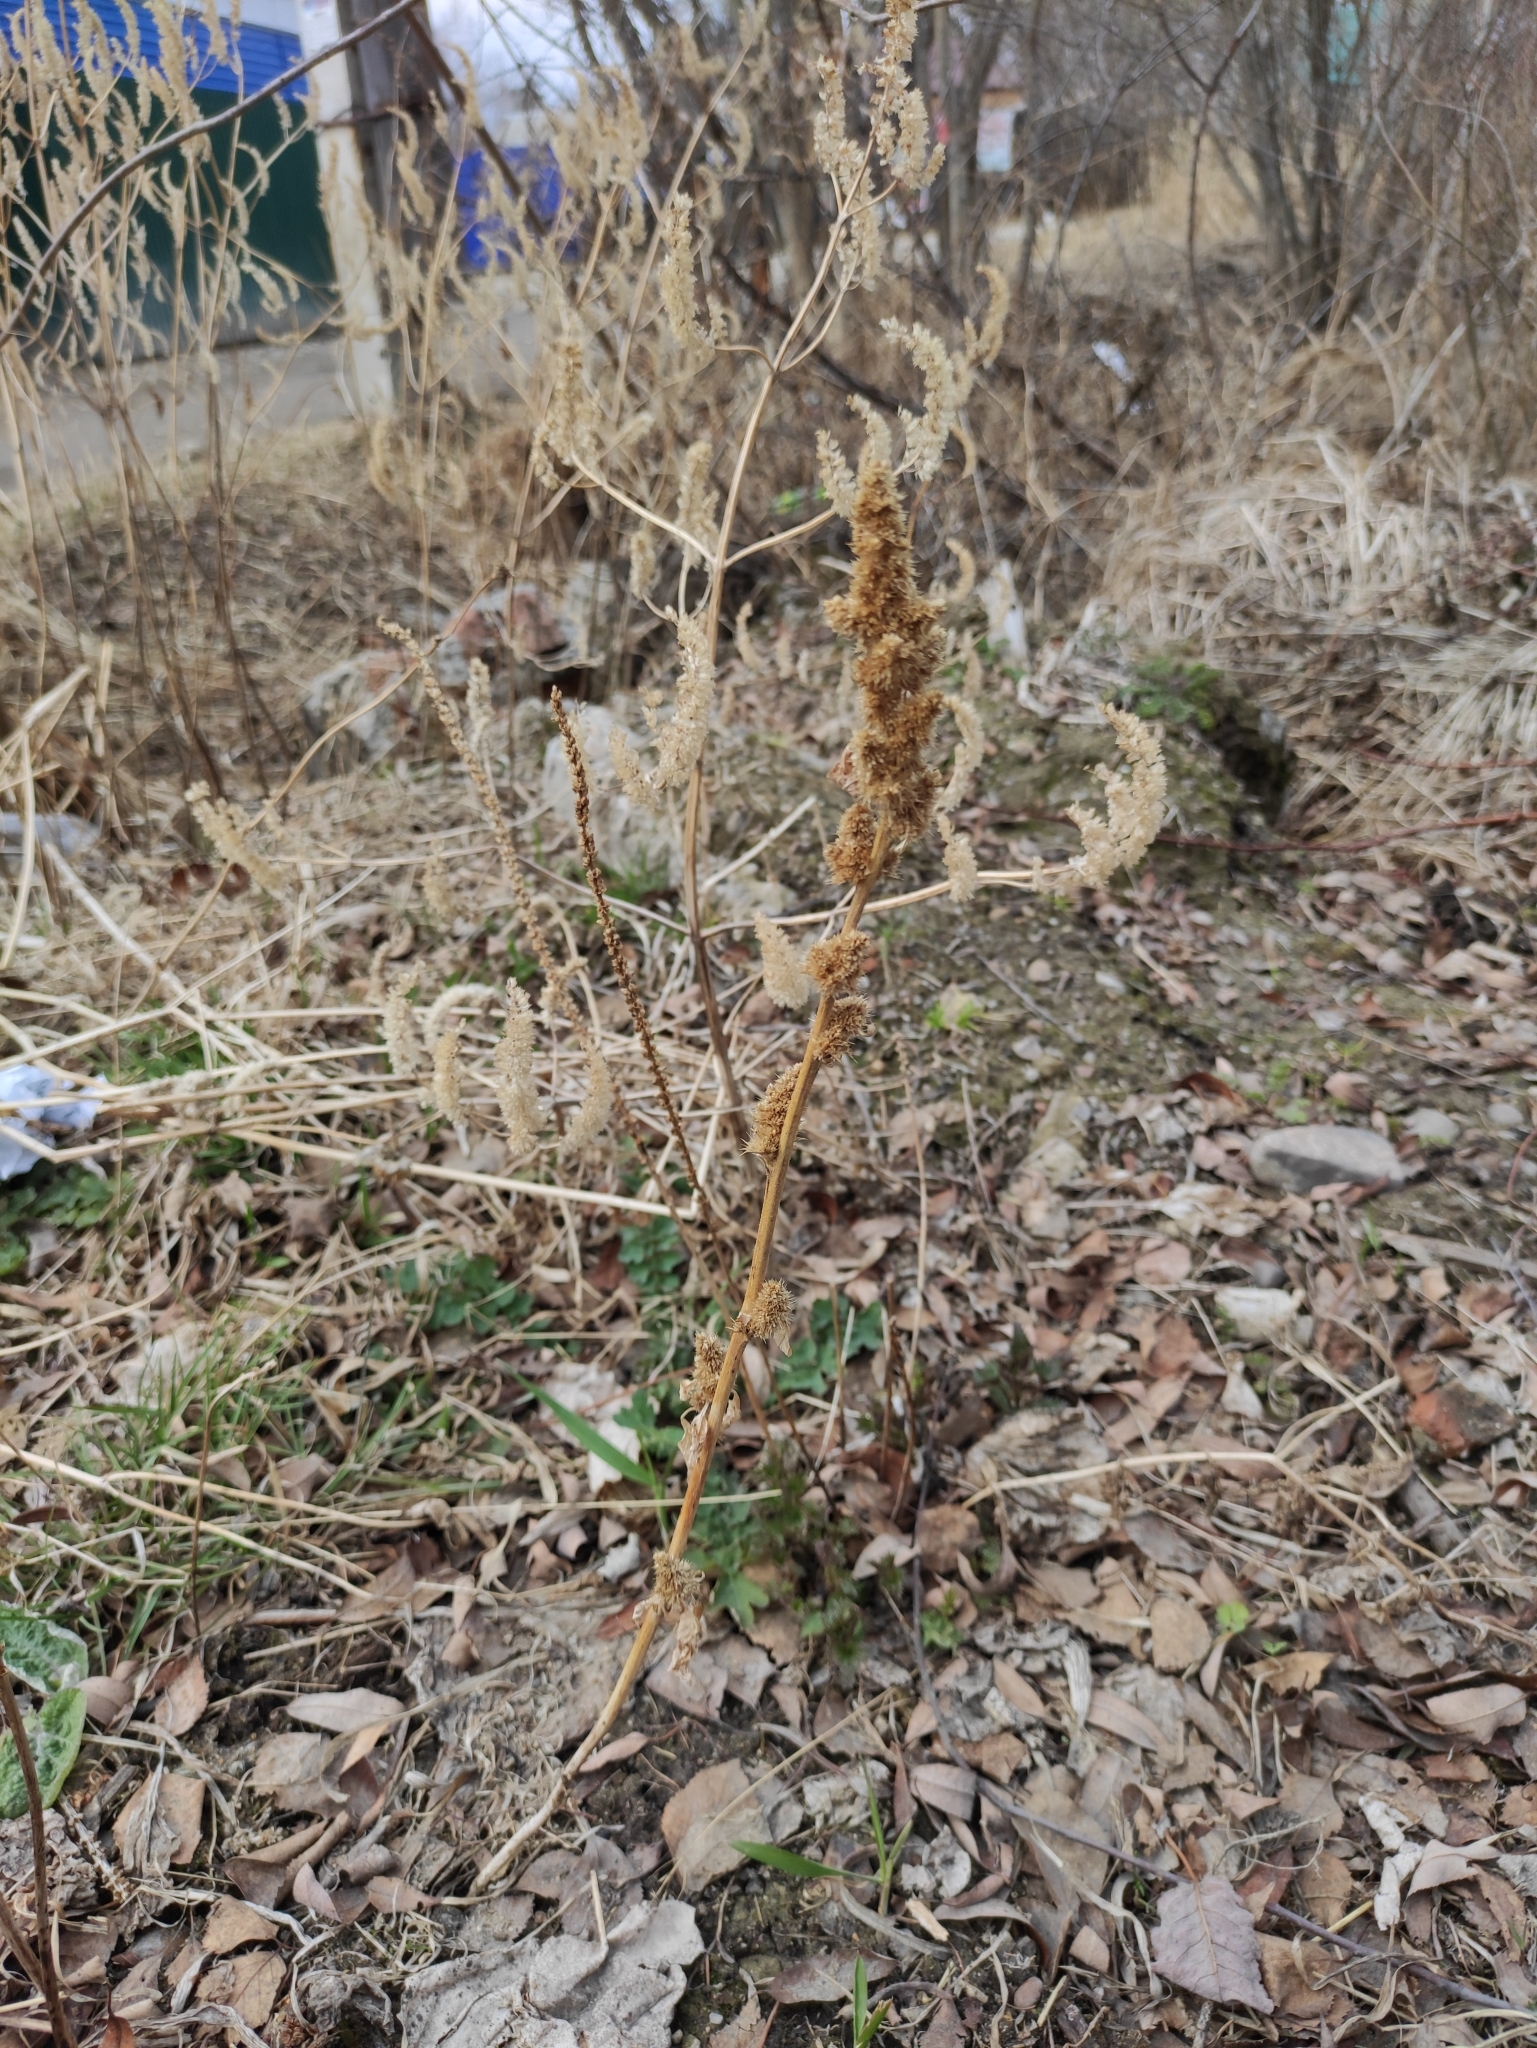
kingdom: Plantae
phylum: Tracheophyta
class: Magnoliopsida
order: Caryophyllales
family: Amaranthaceae
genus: Amaranthus
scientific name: Amaranthus retroflexus
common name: Redroot amaranth
